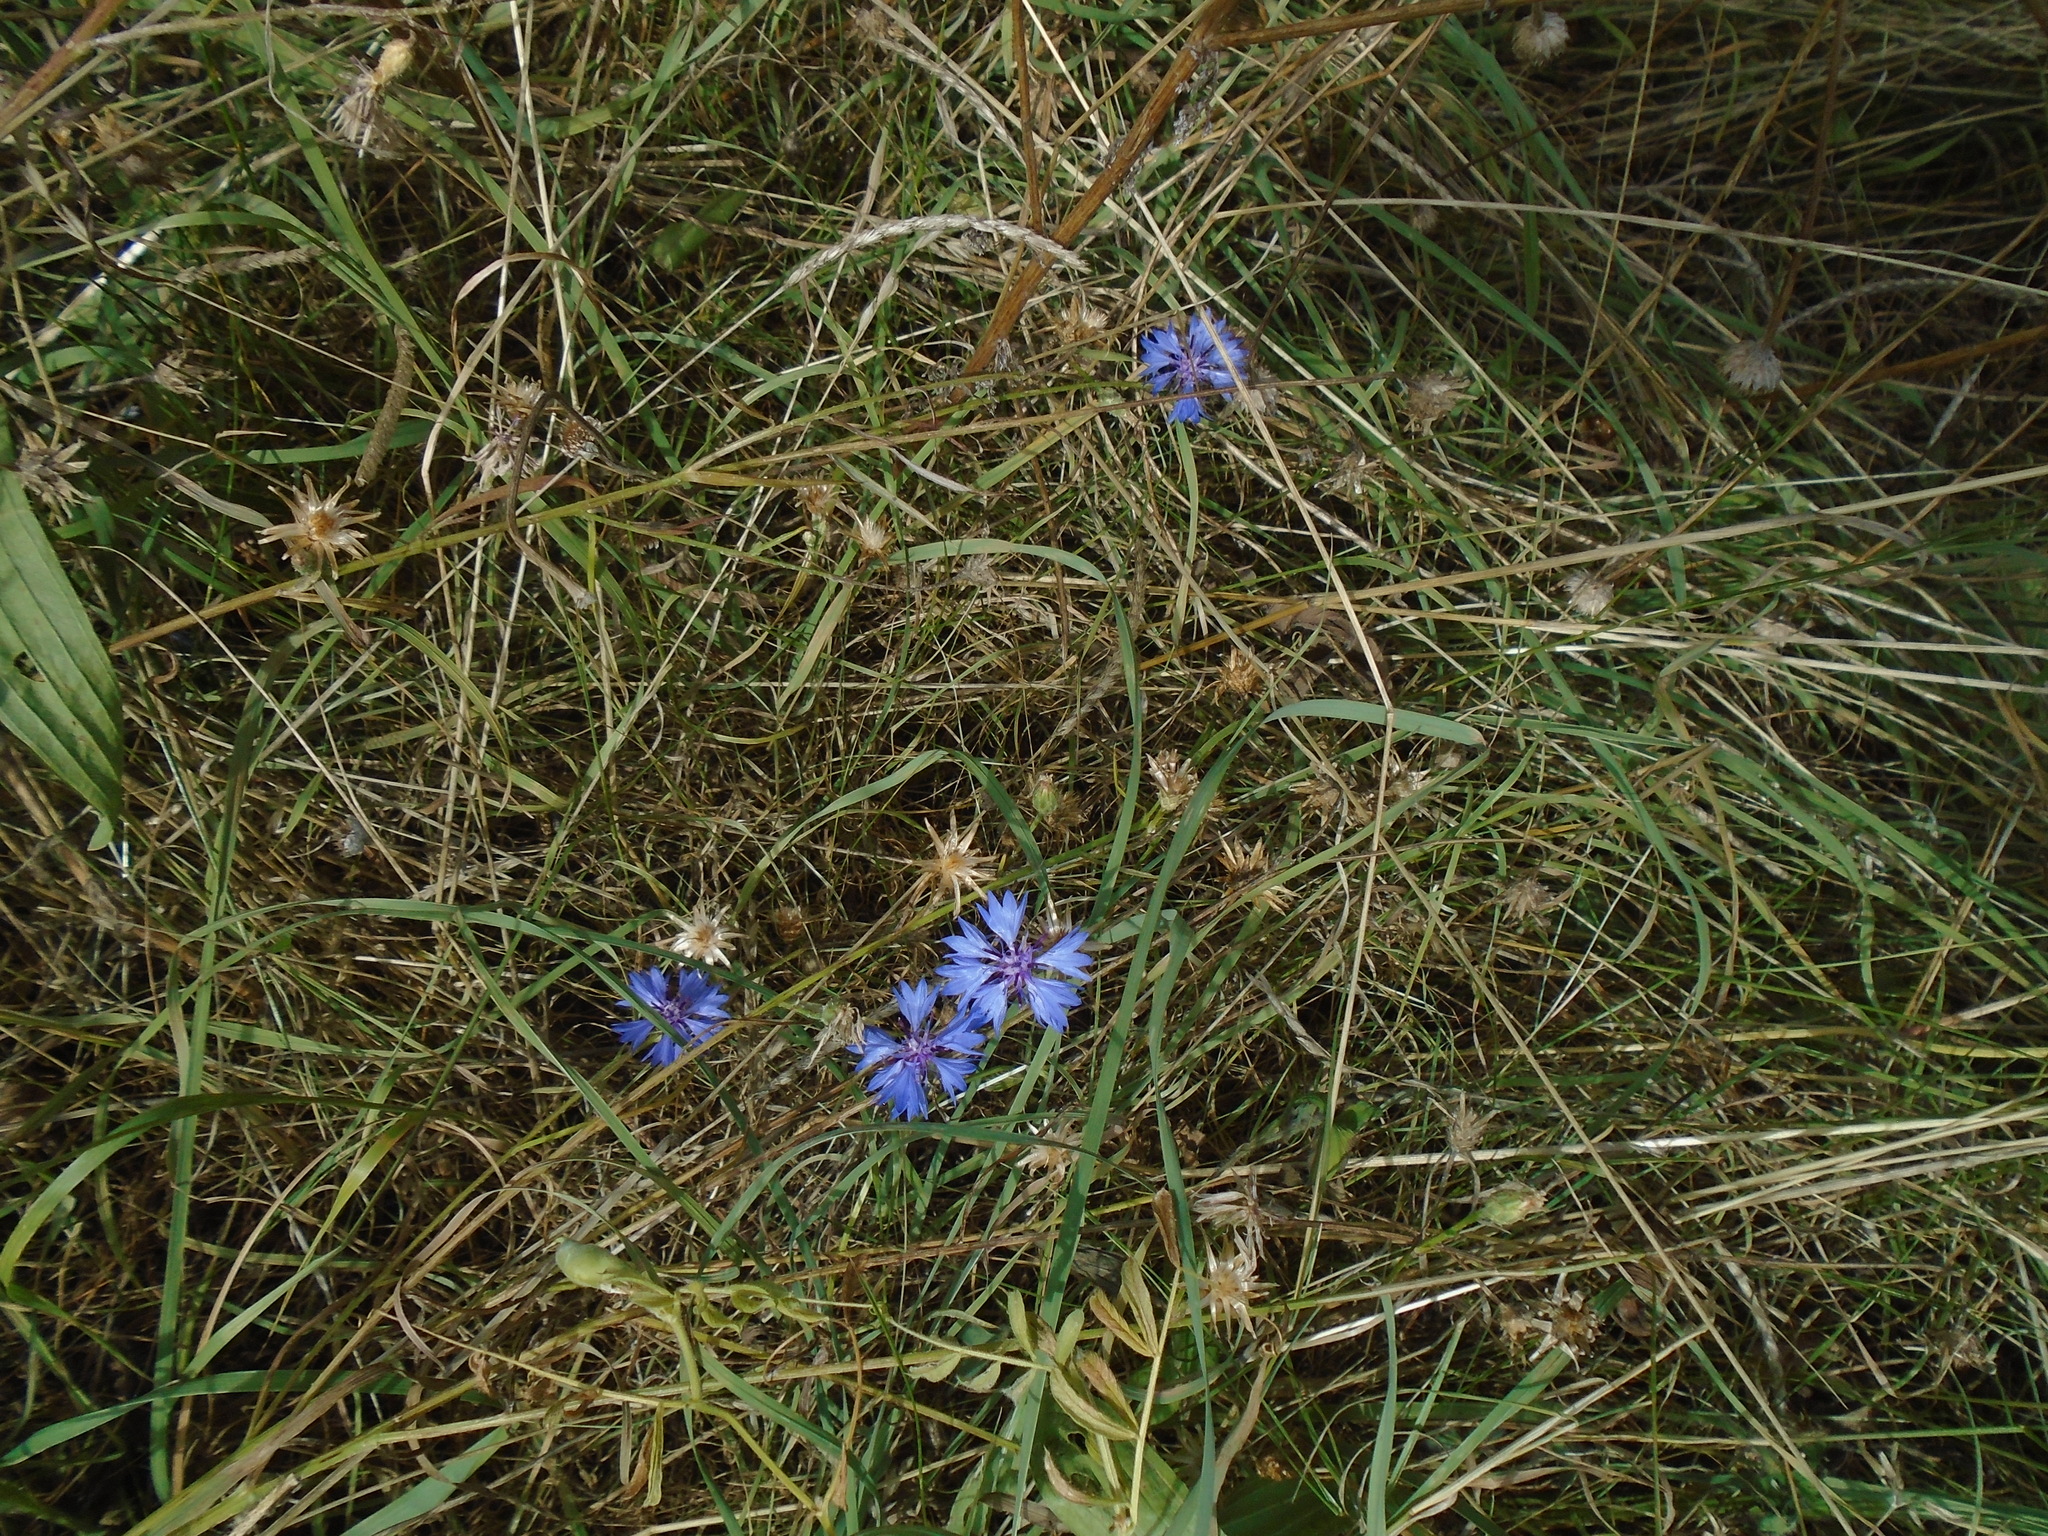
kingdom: Plantae
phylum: Tracheophyta
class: Magnoliopsida
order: Asterales
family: Asteraceae
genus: Centaurea
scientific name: Centaurea cyanus
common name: Cornflower
